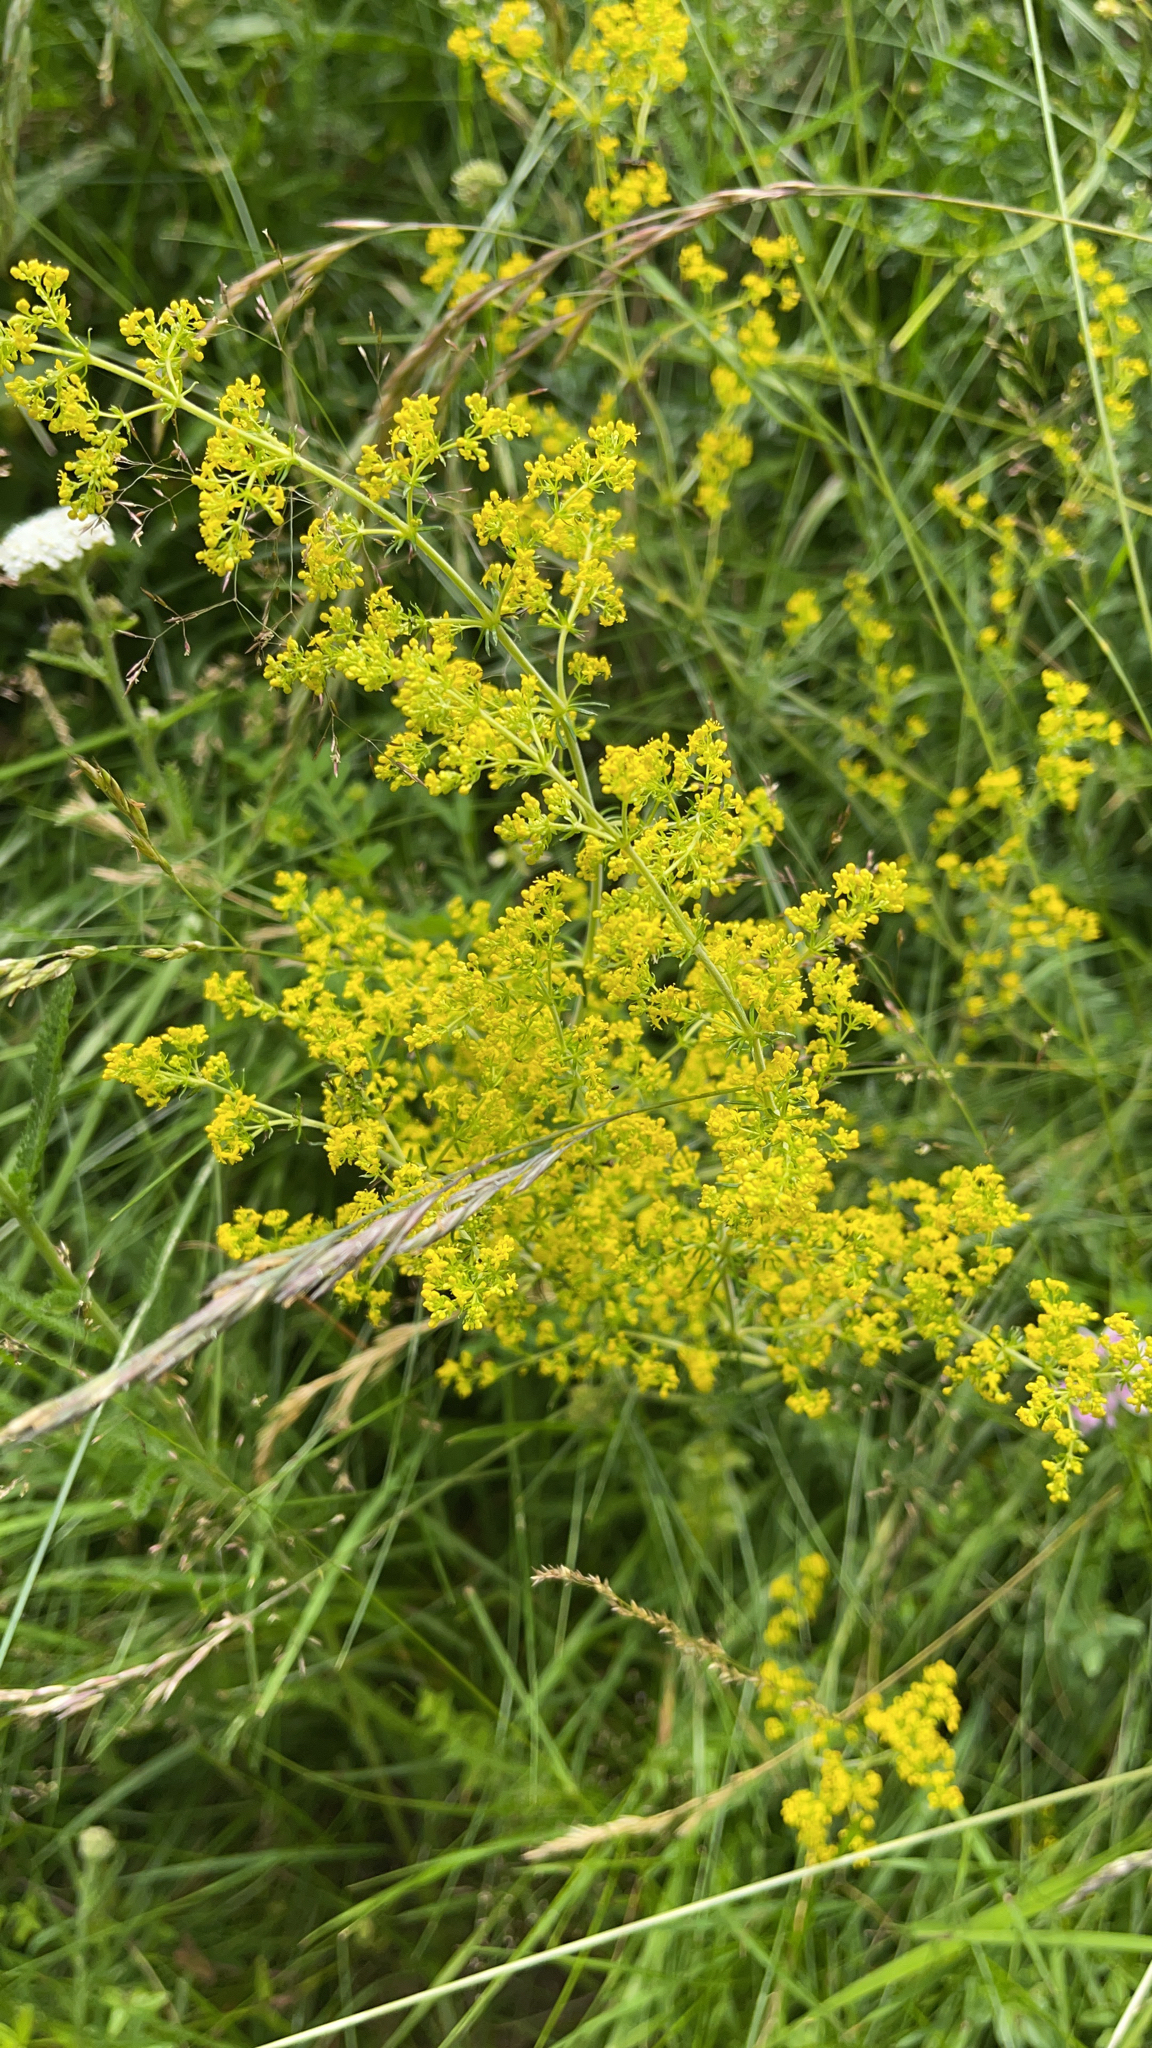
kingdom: Plantae
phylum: Tracheophyta
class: Magnoliopsida
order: Gentianales
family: Rubiaceae
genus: Galium
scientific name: Galium verum
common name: Lady's bedstraw
